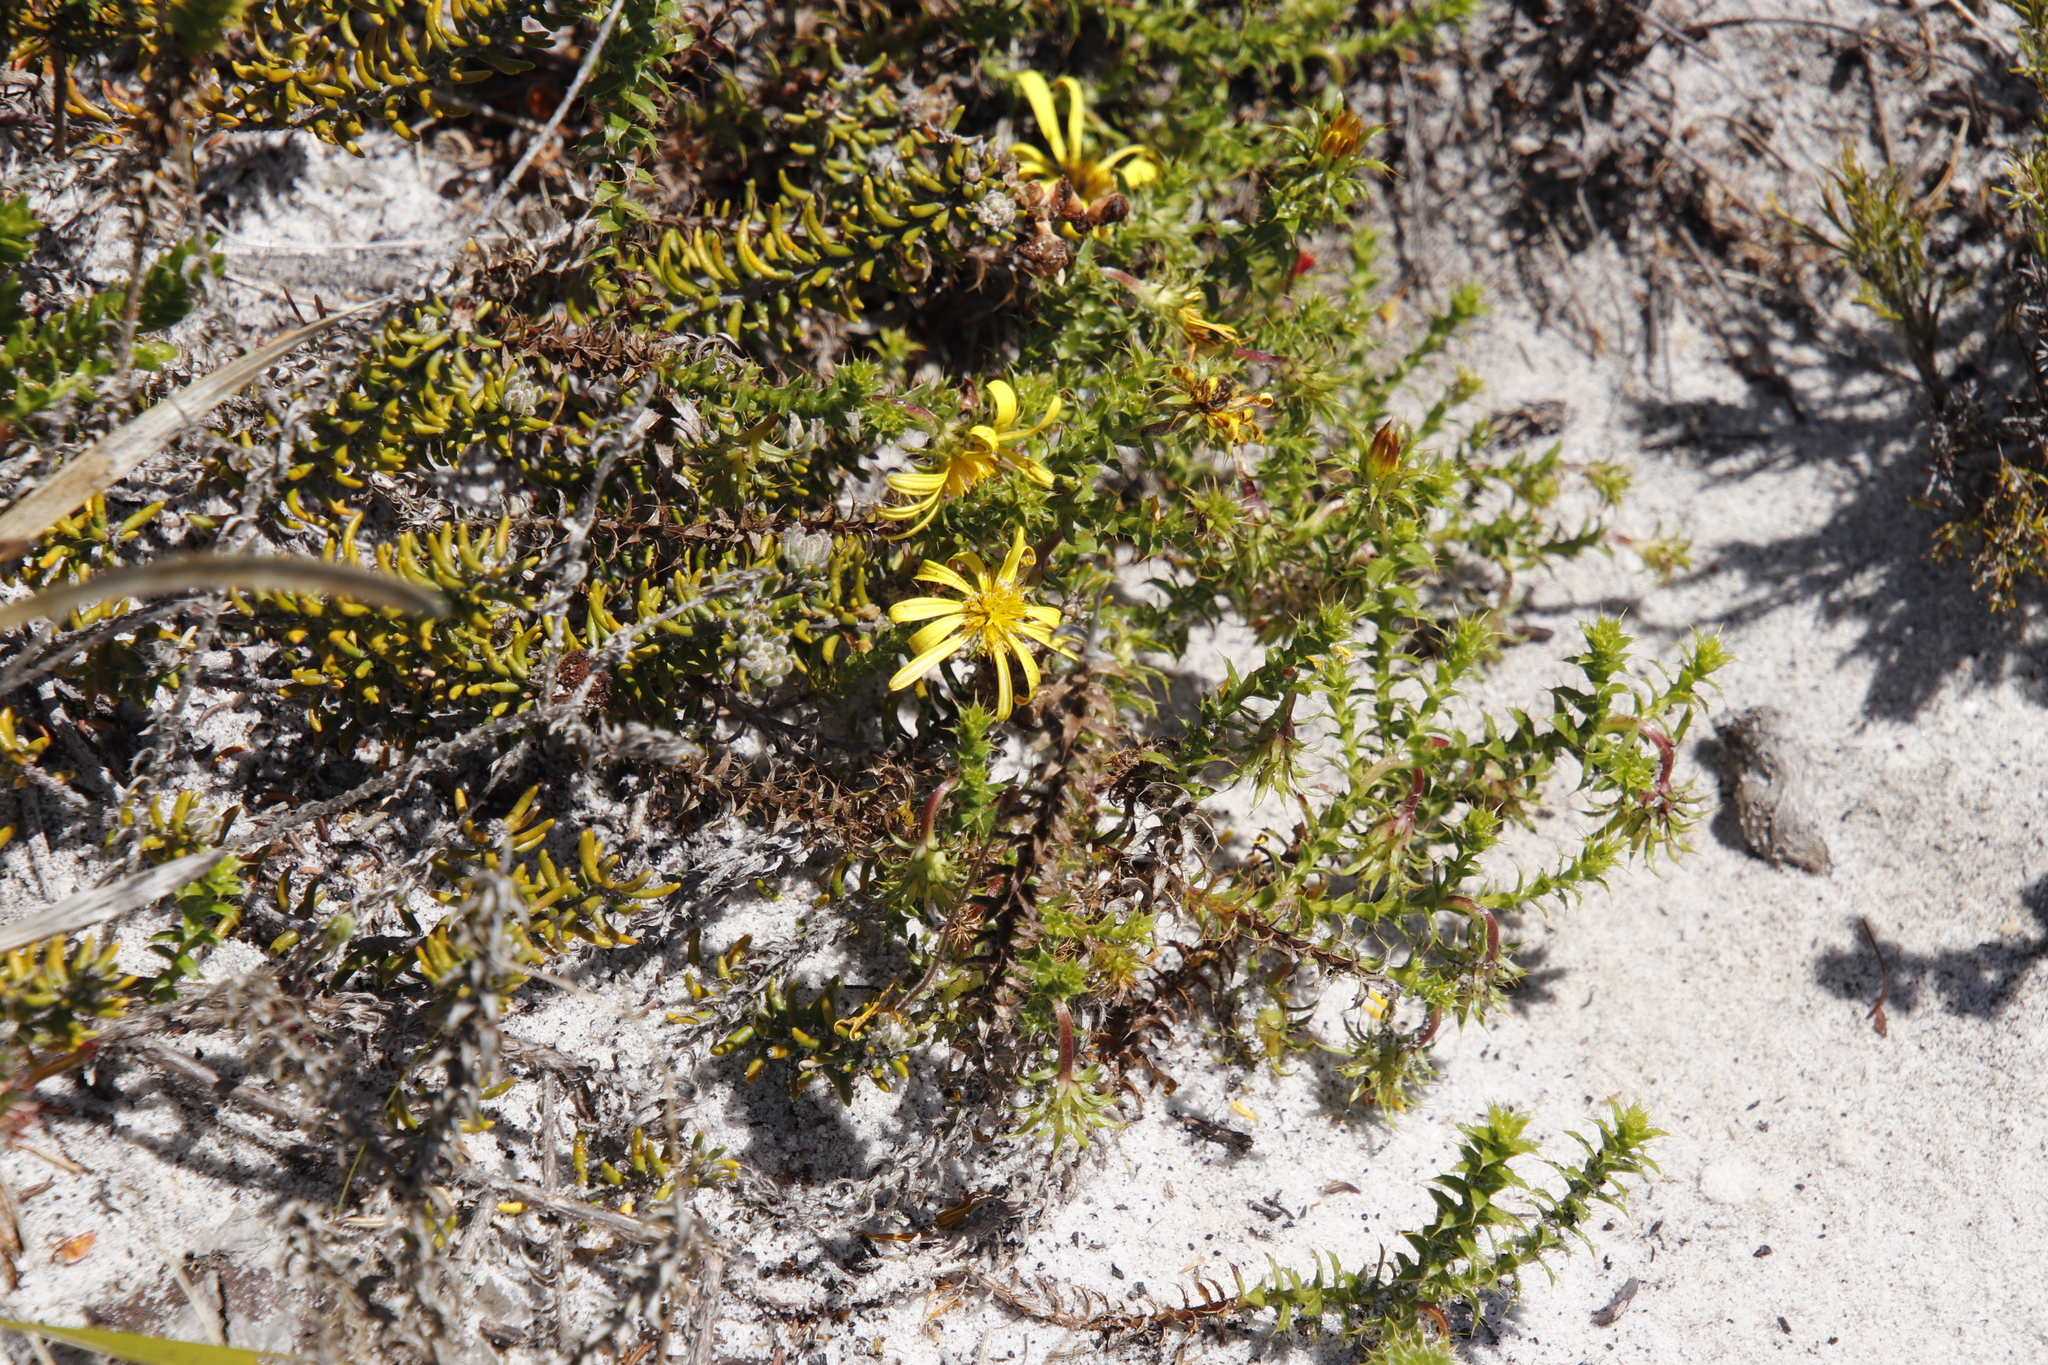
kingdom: Plantae
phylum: Tracheophyta
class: Magnoliopsida
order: Asterales
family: Asteraceae
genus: Cullumia
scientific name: Cullumia setosa
